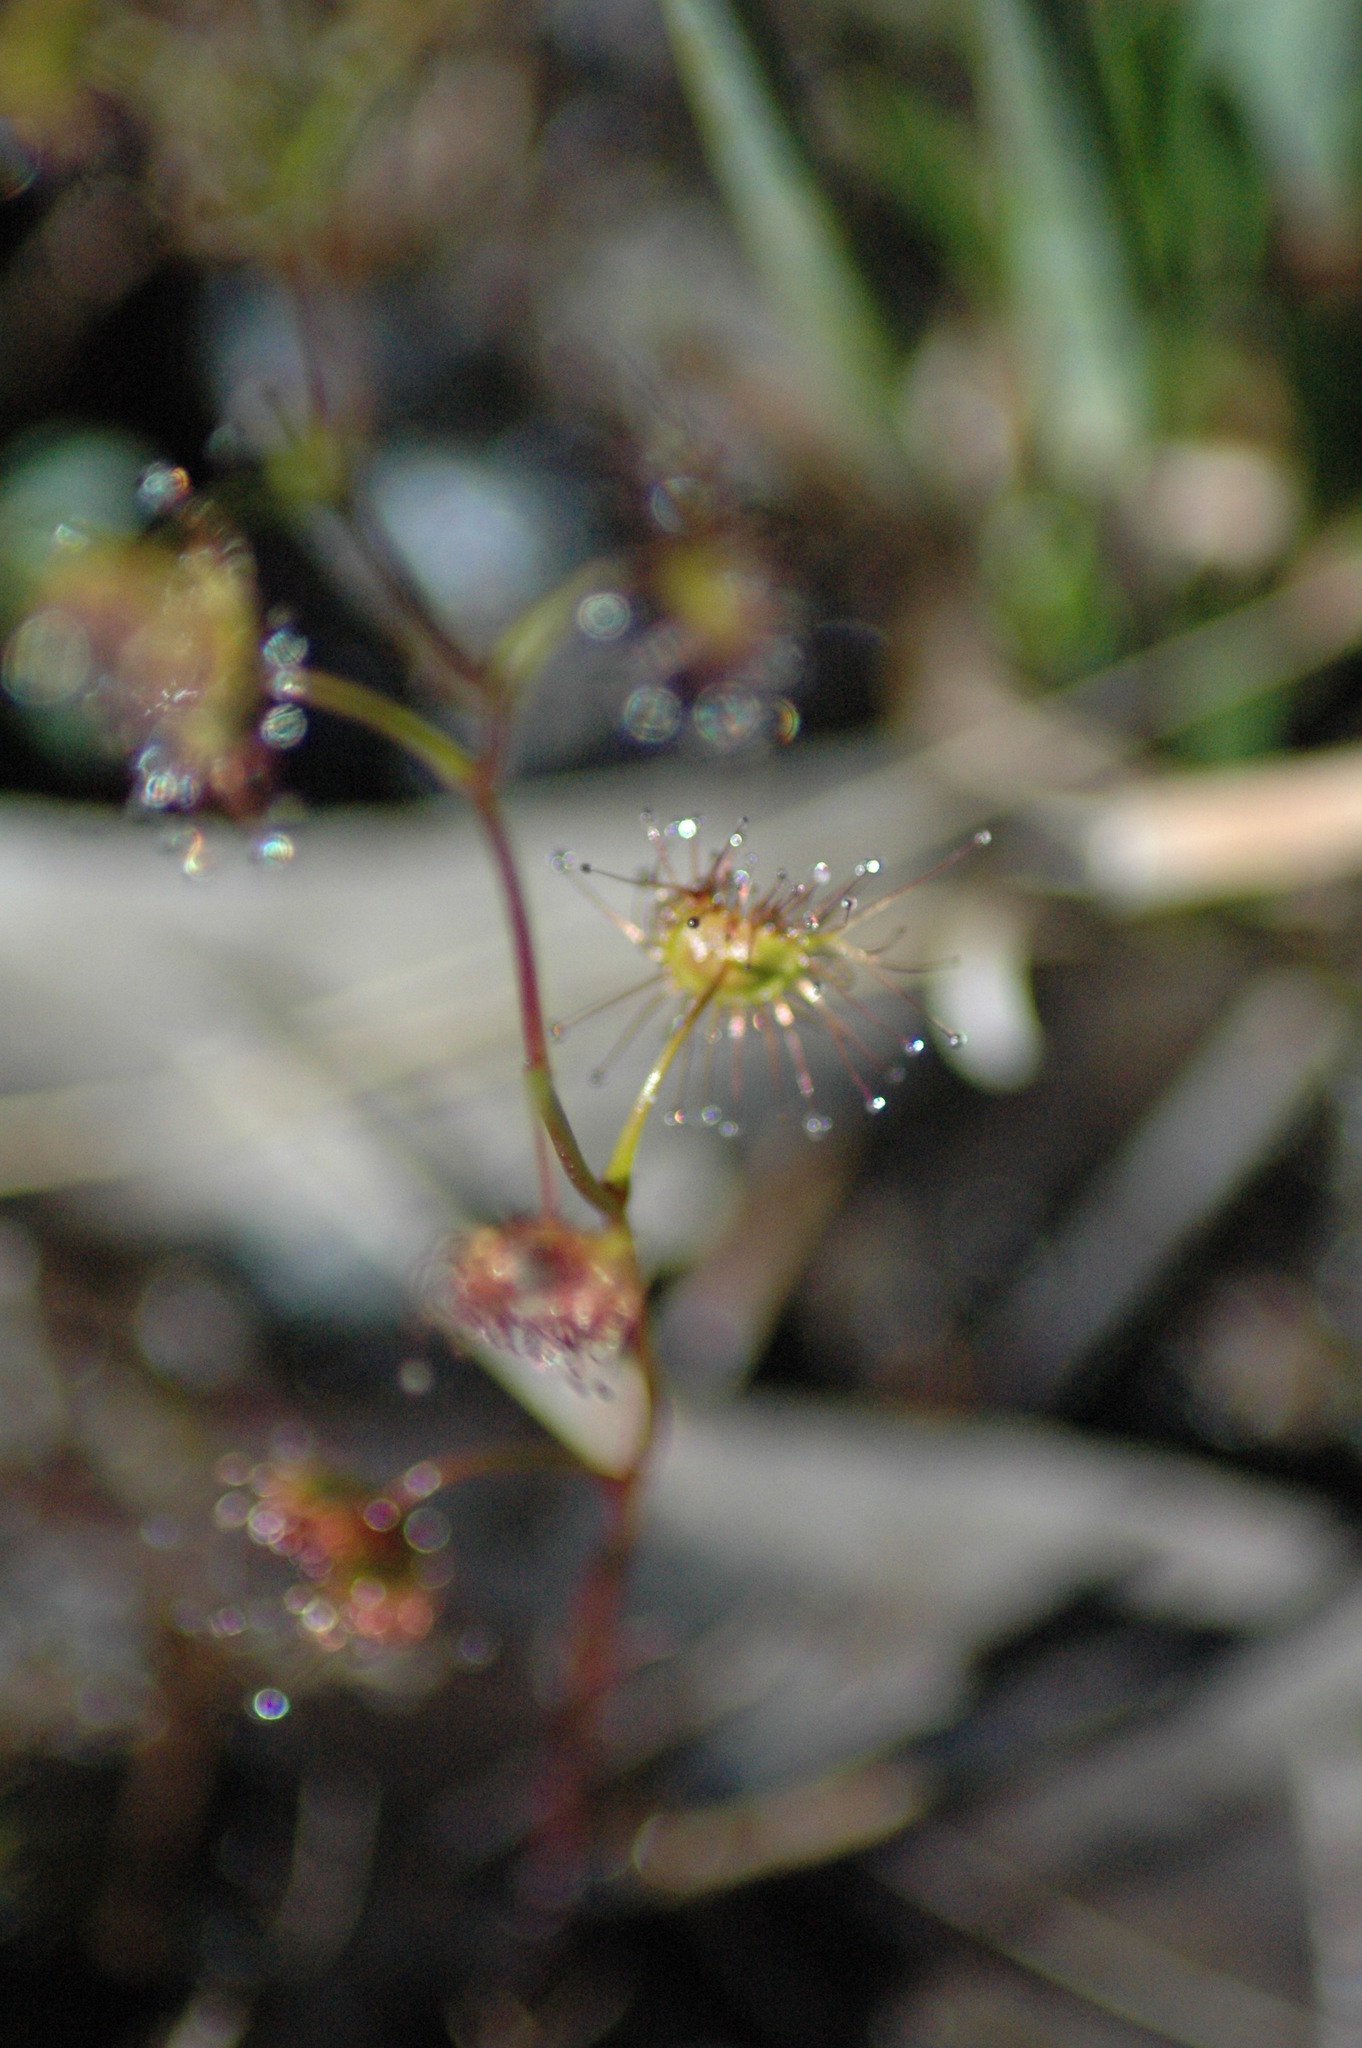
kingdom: Plantae
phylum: Tracheophyta
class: Magnoliopsida
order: Caryophyllales
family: Droseraceae
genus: Drosera
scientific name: Drosera peltata
